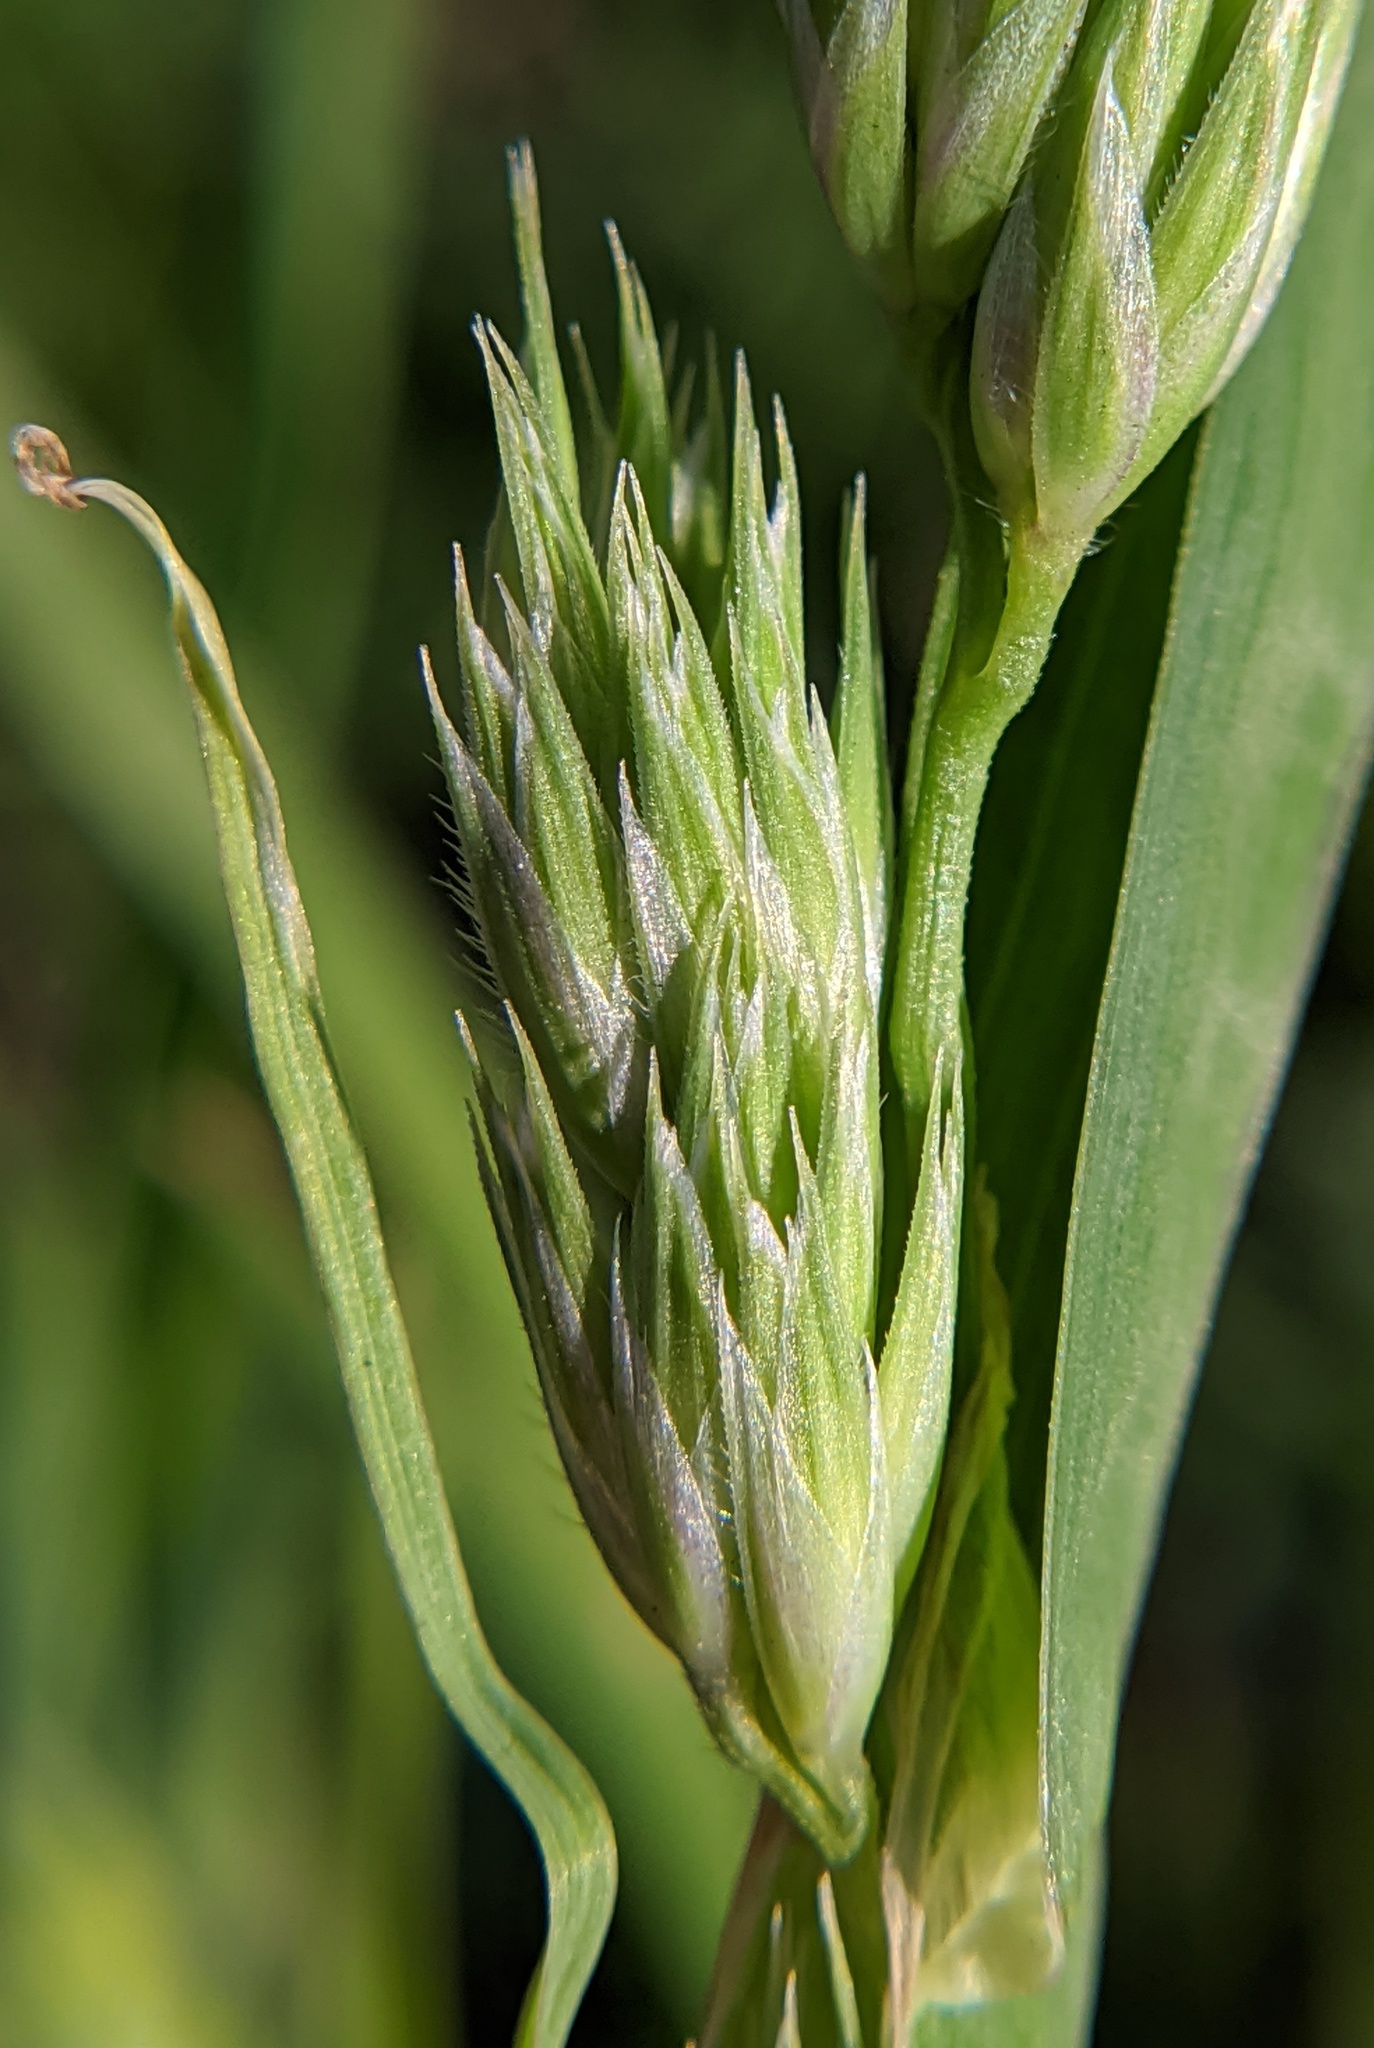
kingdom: Plantae
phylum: Tracheophyta
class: Liliopsida
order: Poales
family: Poaceae
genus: Dactylis
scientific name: Dactylis glomerata
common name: Orchardgrass
